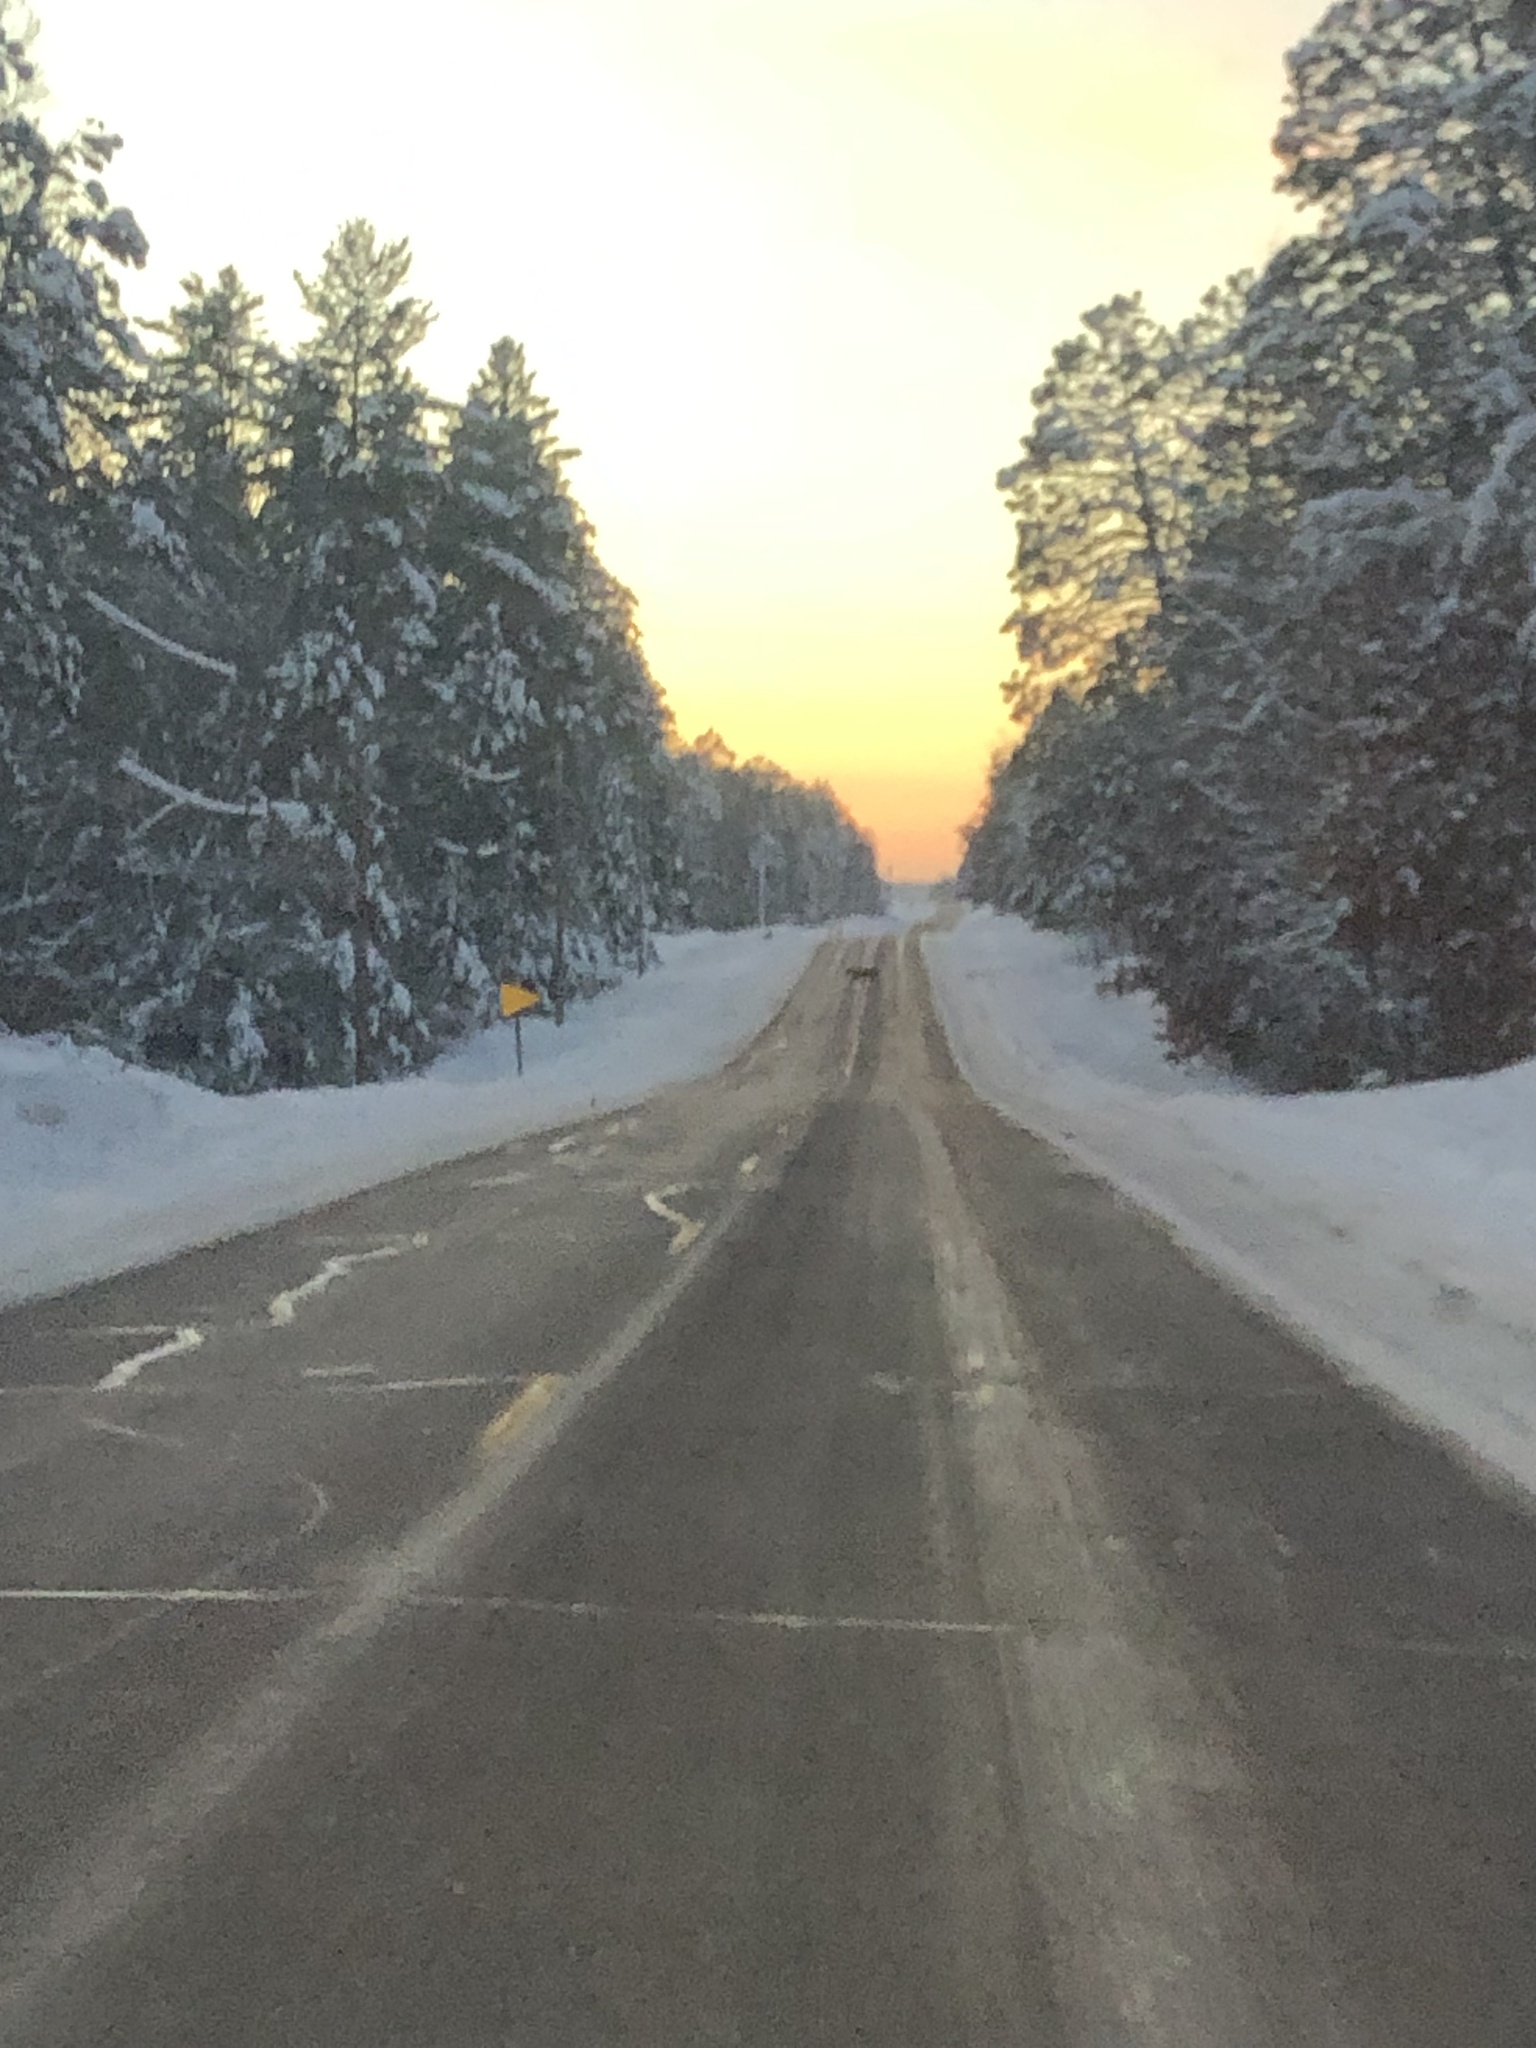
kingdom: Animalia
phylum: Chordata
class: Mammalia
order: Artiodactyla
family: Cervidae
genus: Odocoileus
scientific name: Odocoileus virginianus
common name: White-tailed deer
